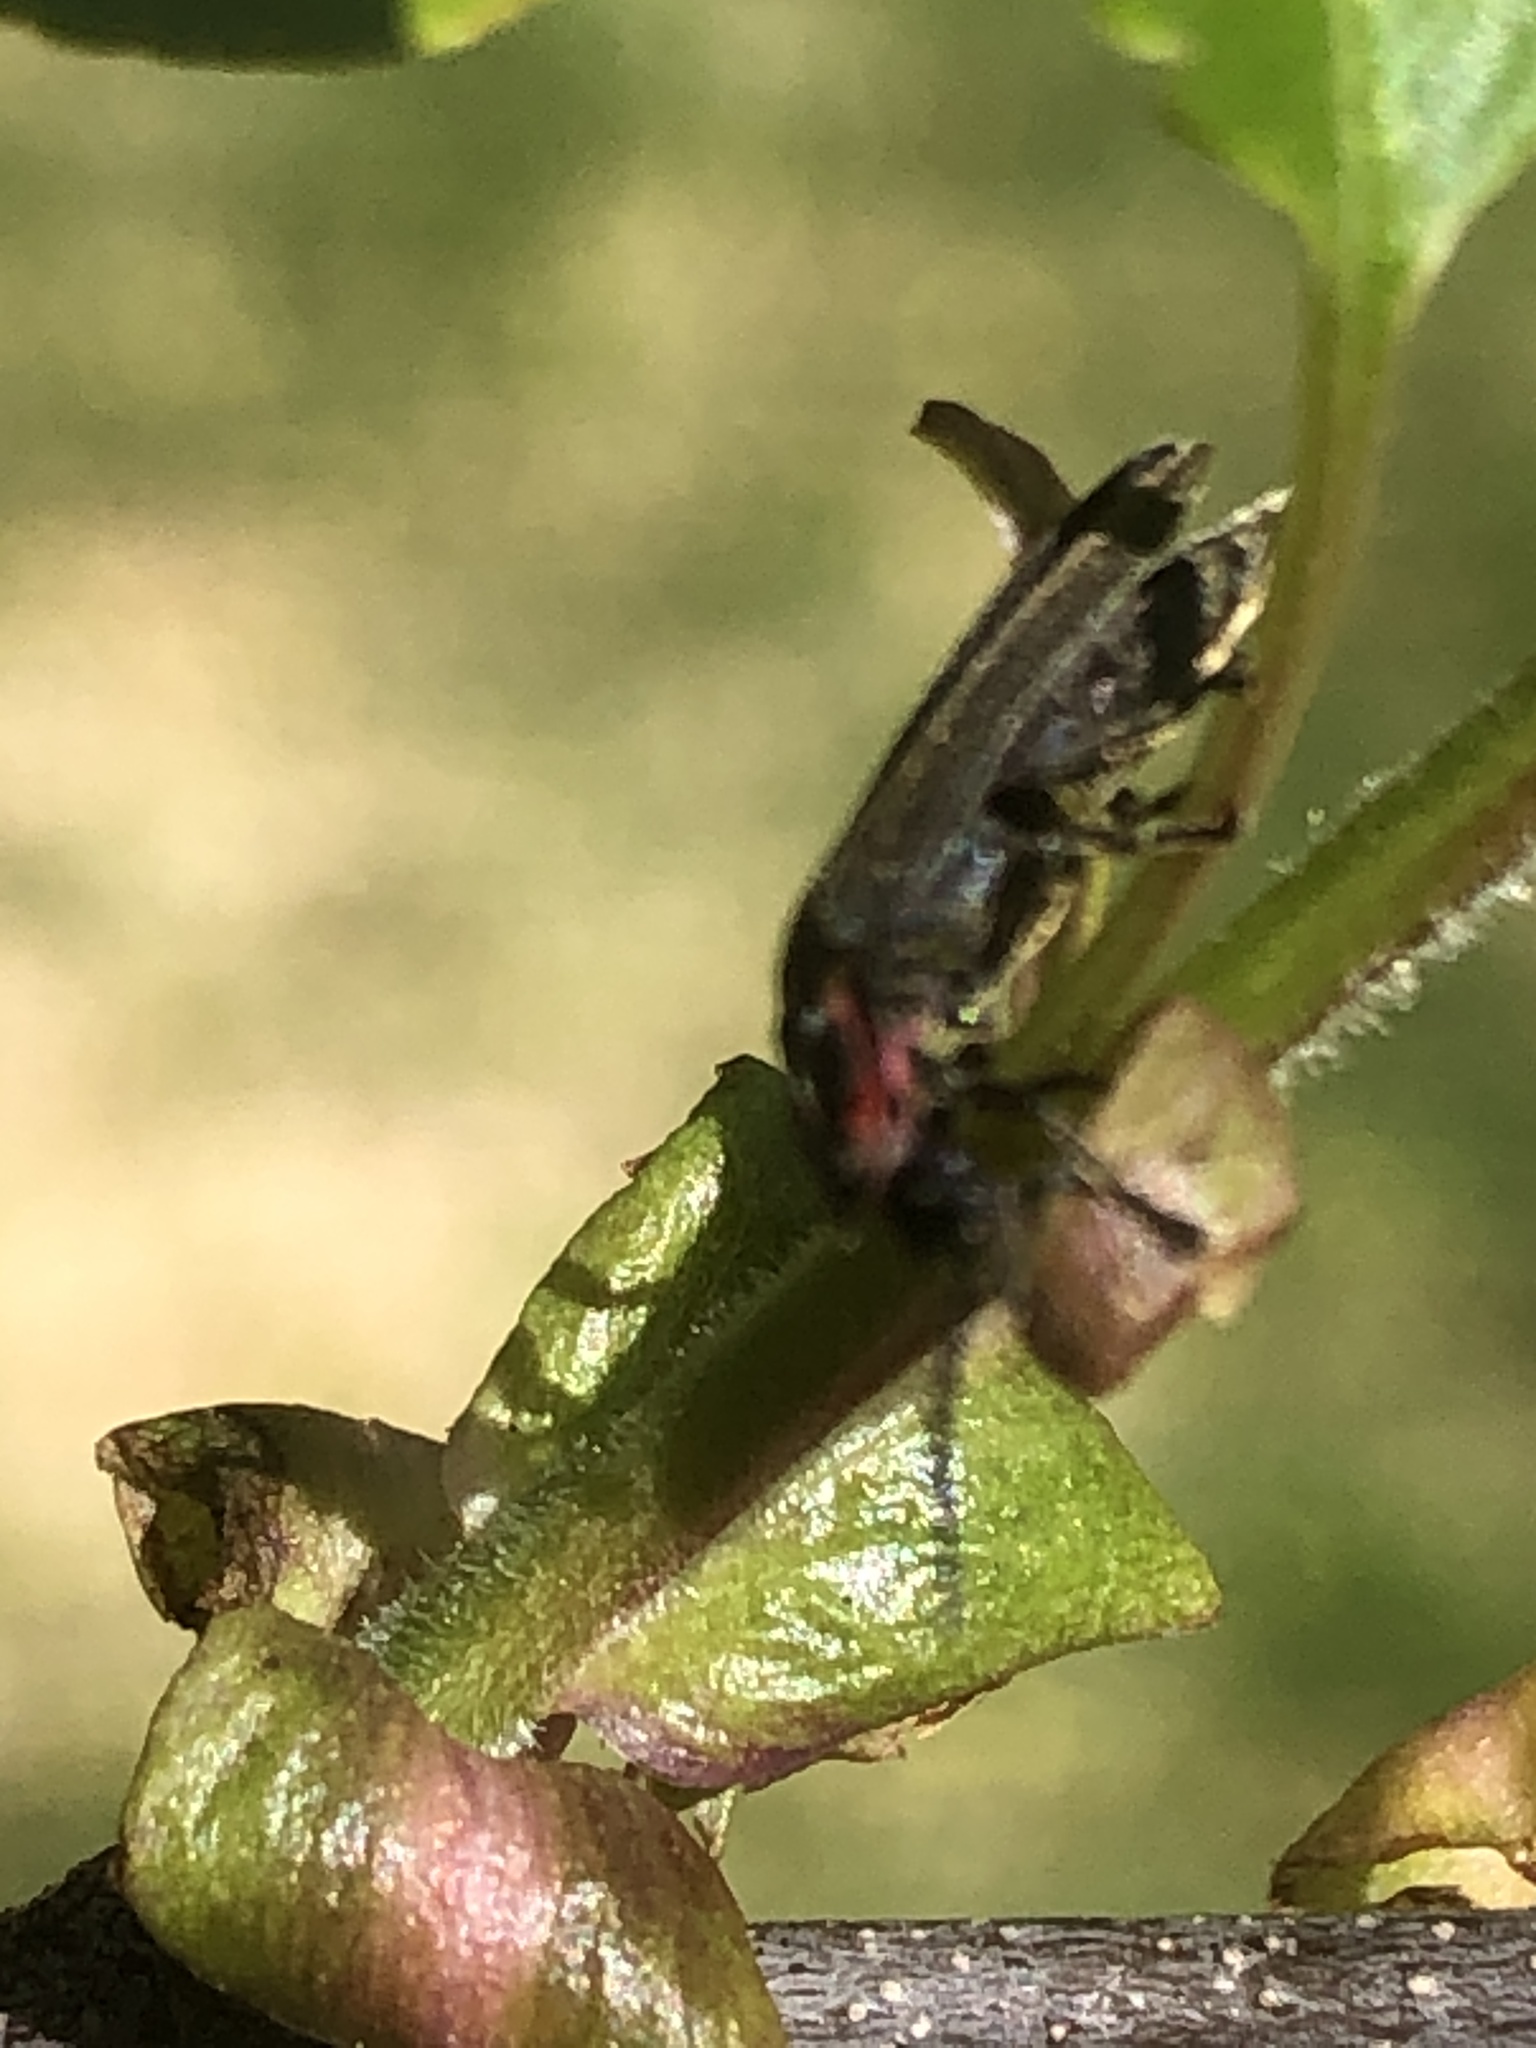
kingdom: Animalia
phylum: Arthropoda
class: Insecta
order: Coleoptera
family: Lampyridae
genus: Photinus
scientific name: Photinus corrusca
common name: Winter firefly
